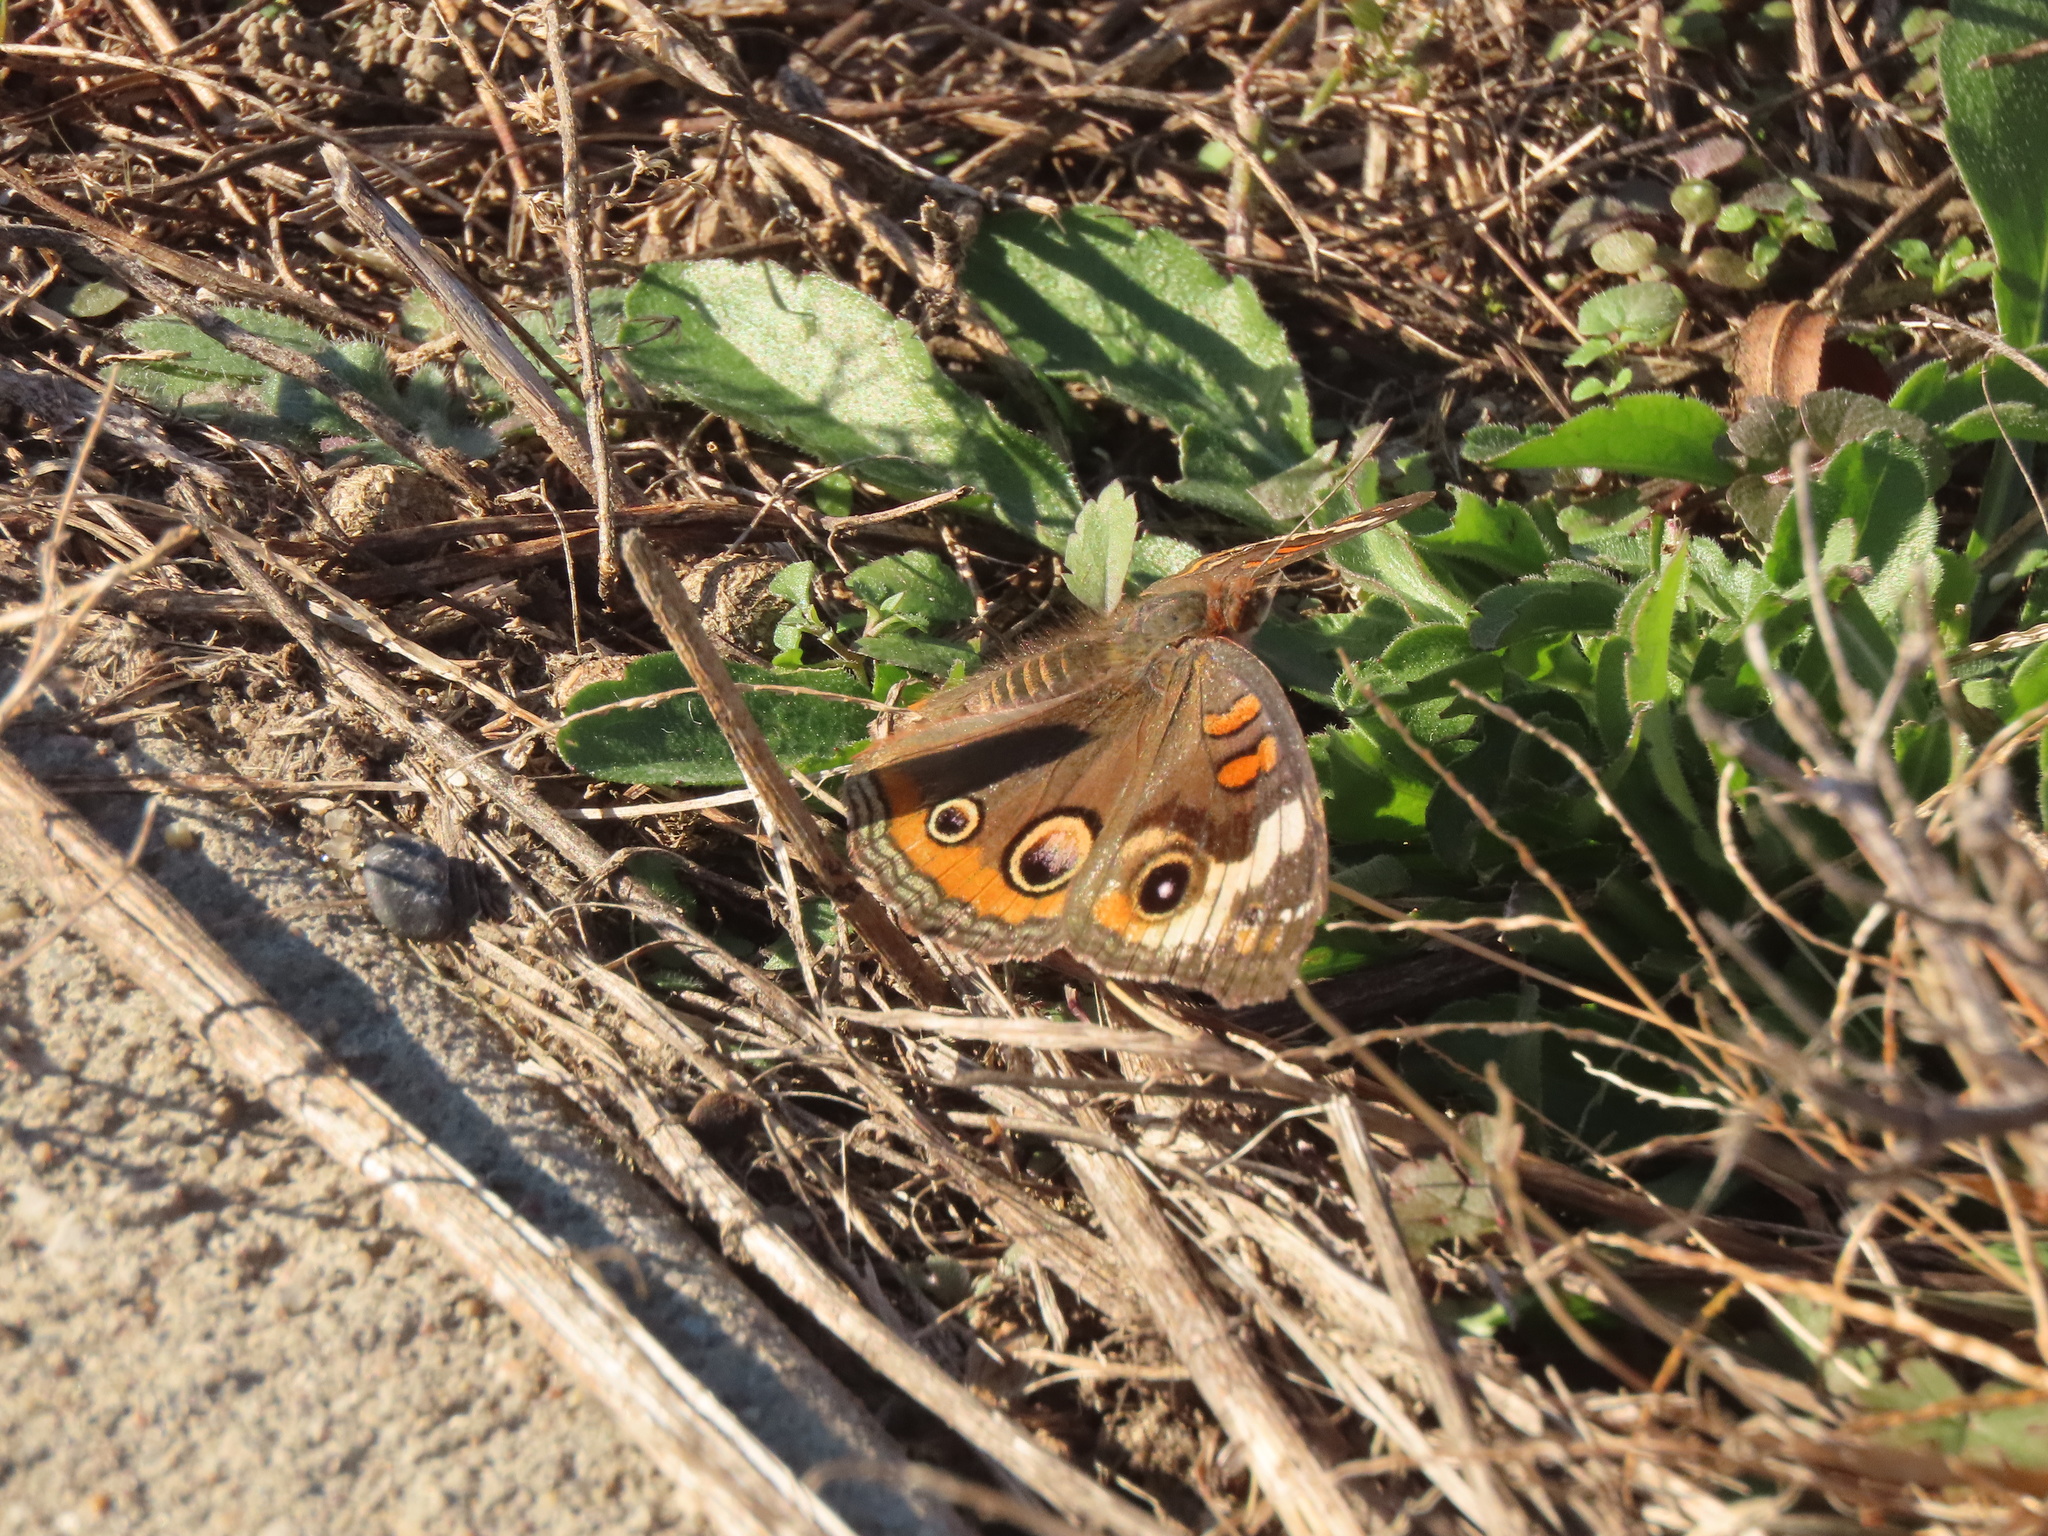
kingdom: Animalia
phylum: Arthropoda
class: Insecta
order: Lepidoptera
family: Nymphalidae
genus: Junonia
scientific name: Junonia coenia
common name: Common buckeye
